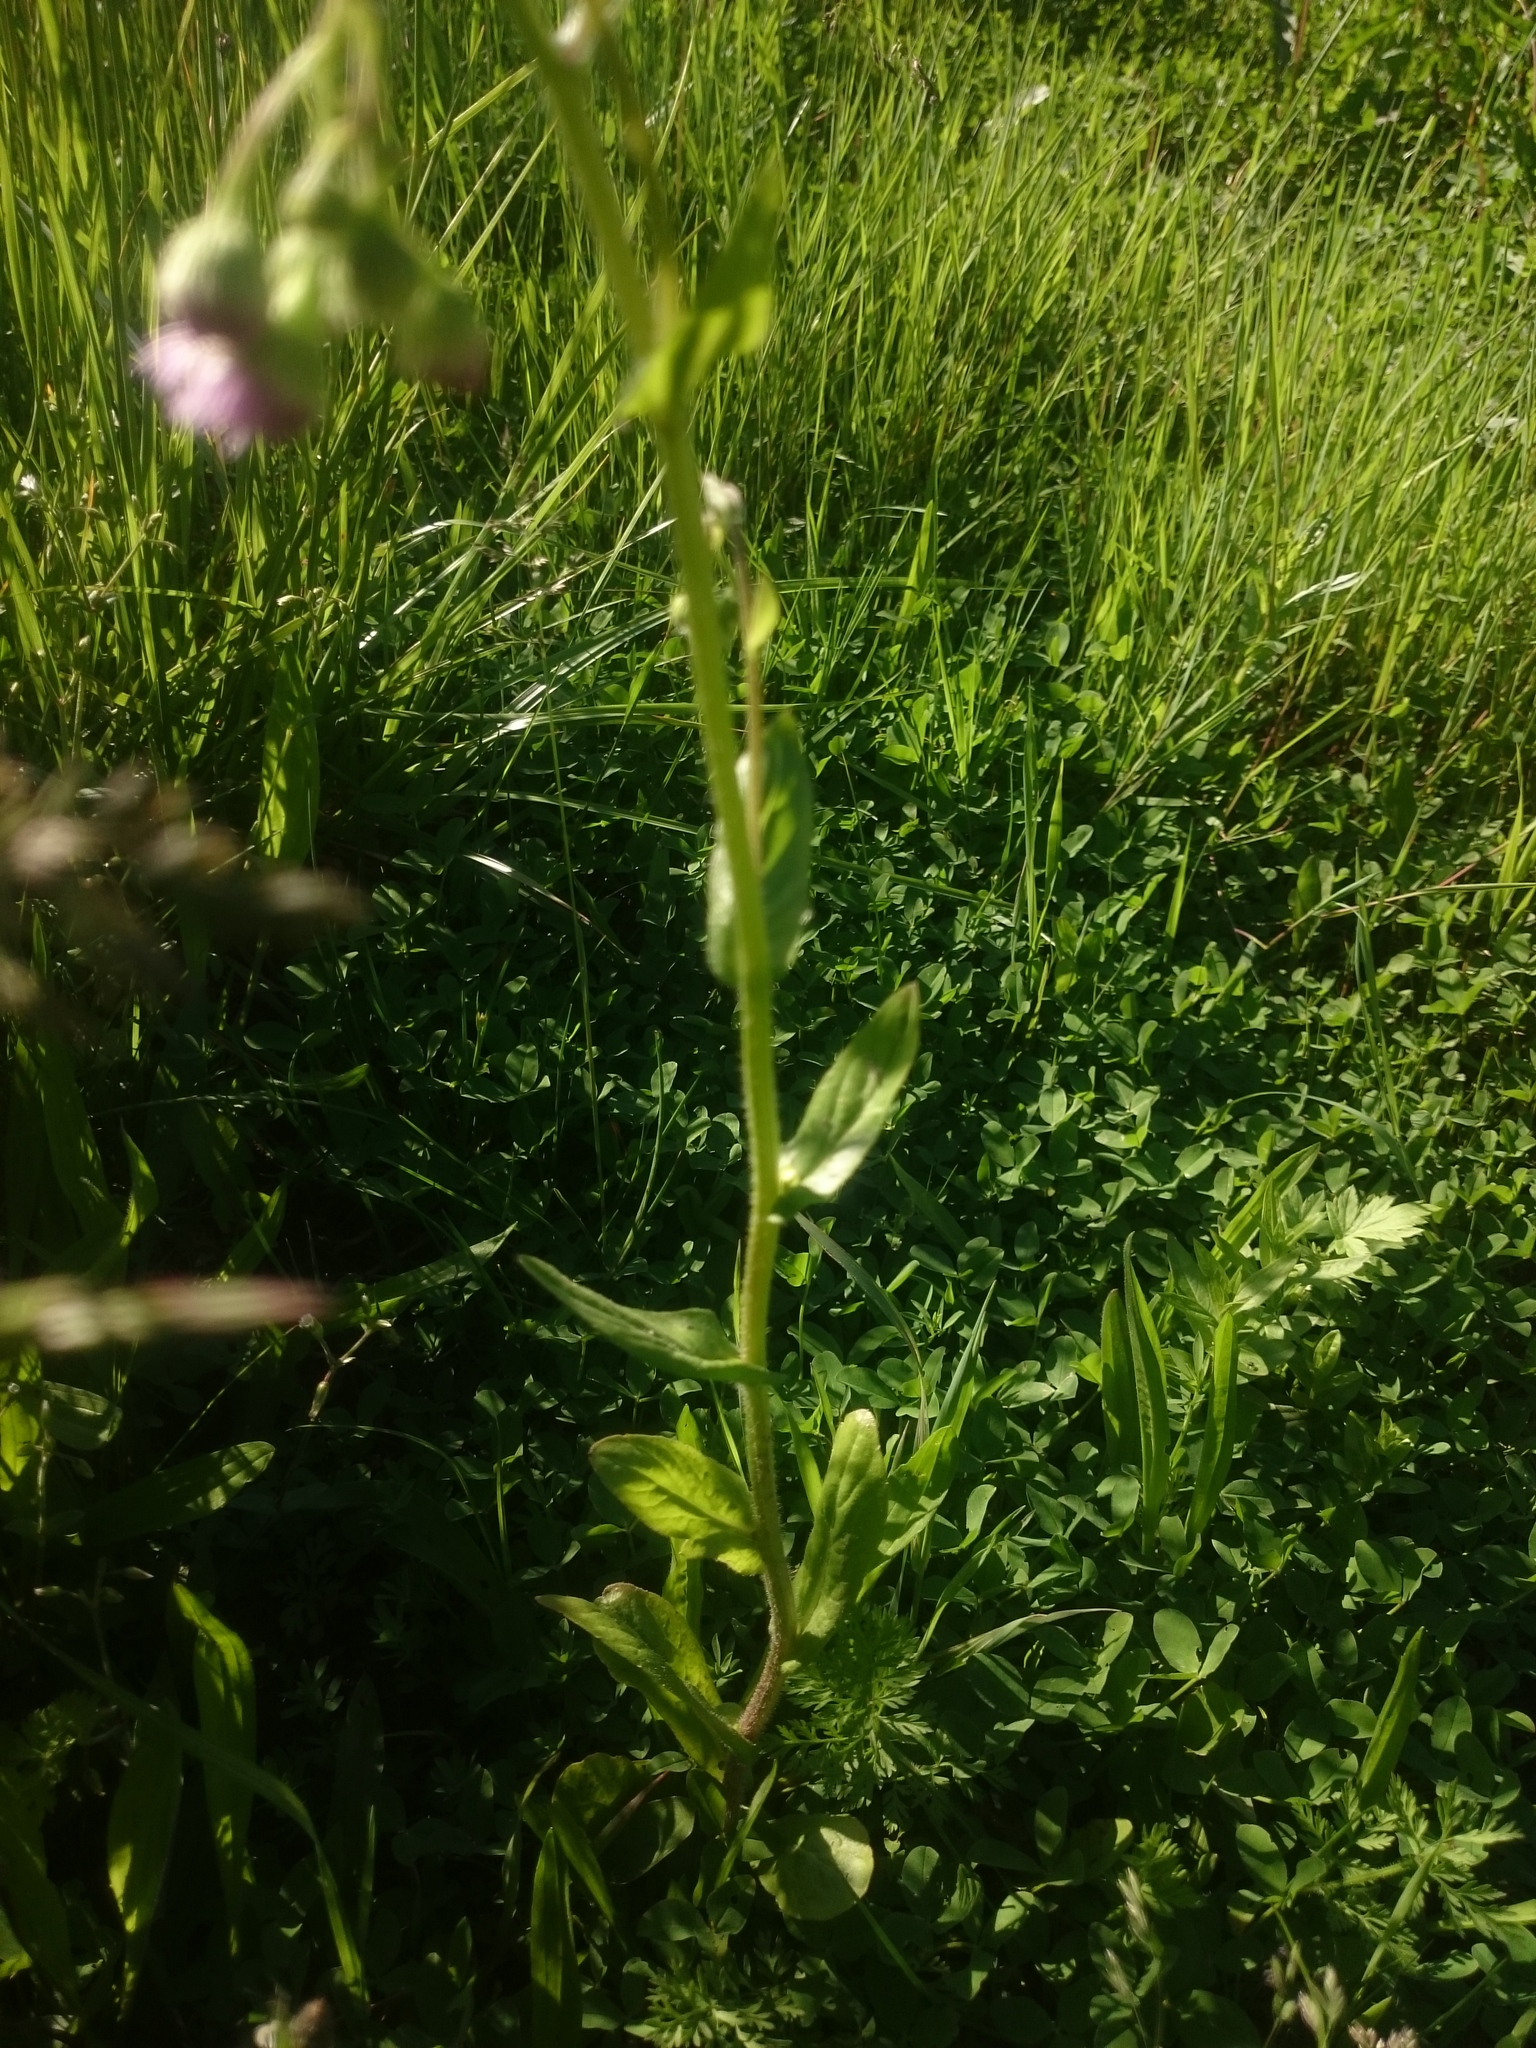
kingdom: Plantae
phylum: Tracheophyta
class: Magnoliopsida
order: Asterales
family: Asteraceae
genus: Erigeron
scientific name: Erigeron philadelphicus
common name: Robin's-plantain
